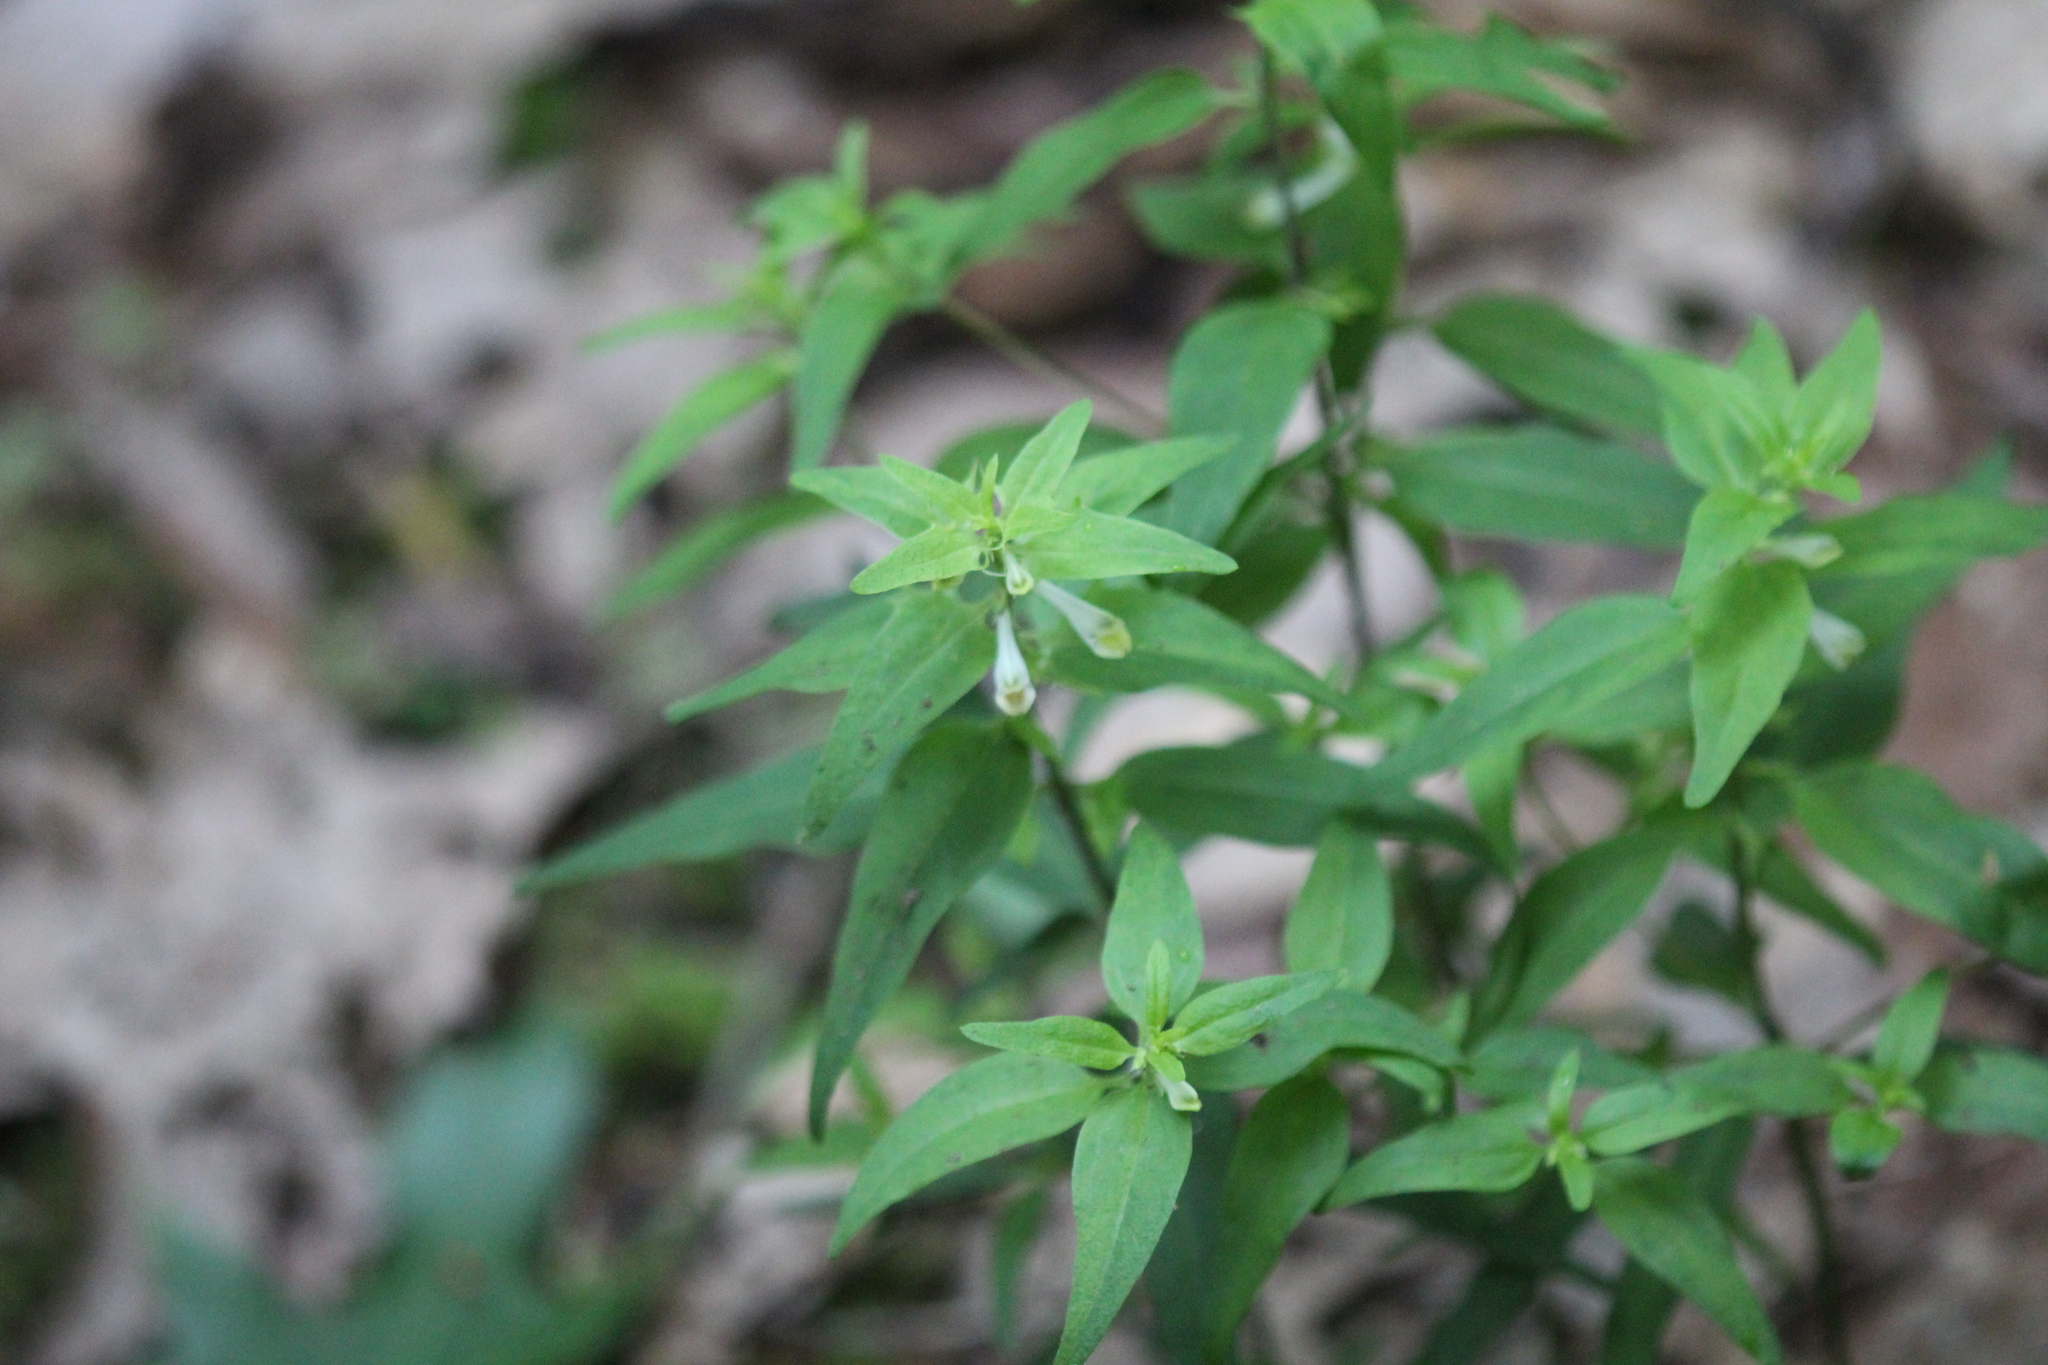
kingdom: Plantae
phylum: Tracheophyta
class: Magnoliopsida
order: Lamiales
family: Orobanchaceae
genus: Melampyrum
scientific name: Melampyrum lineare
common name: American cow-wheat
